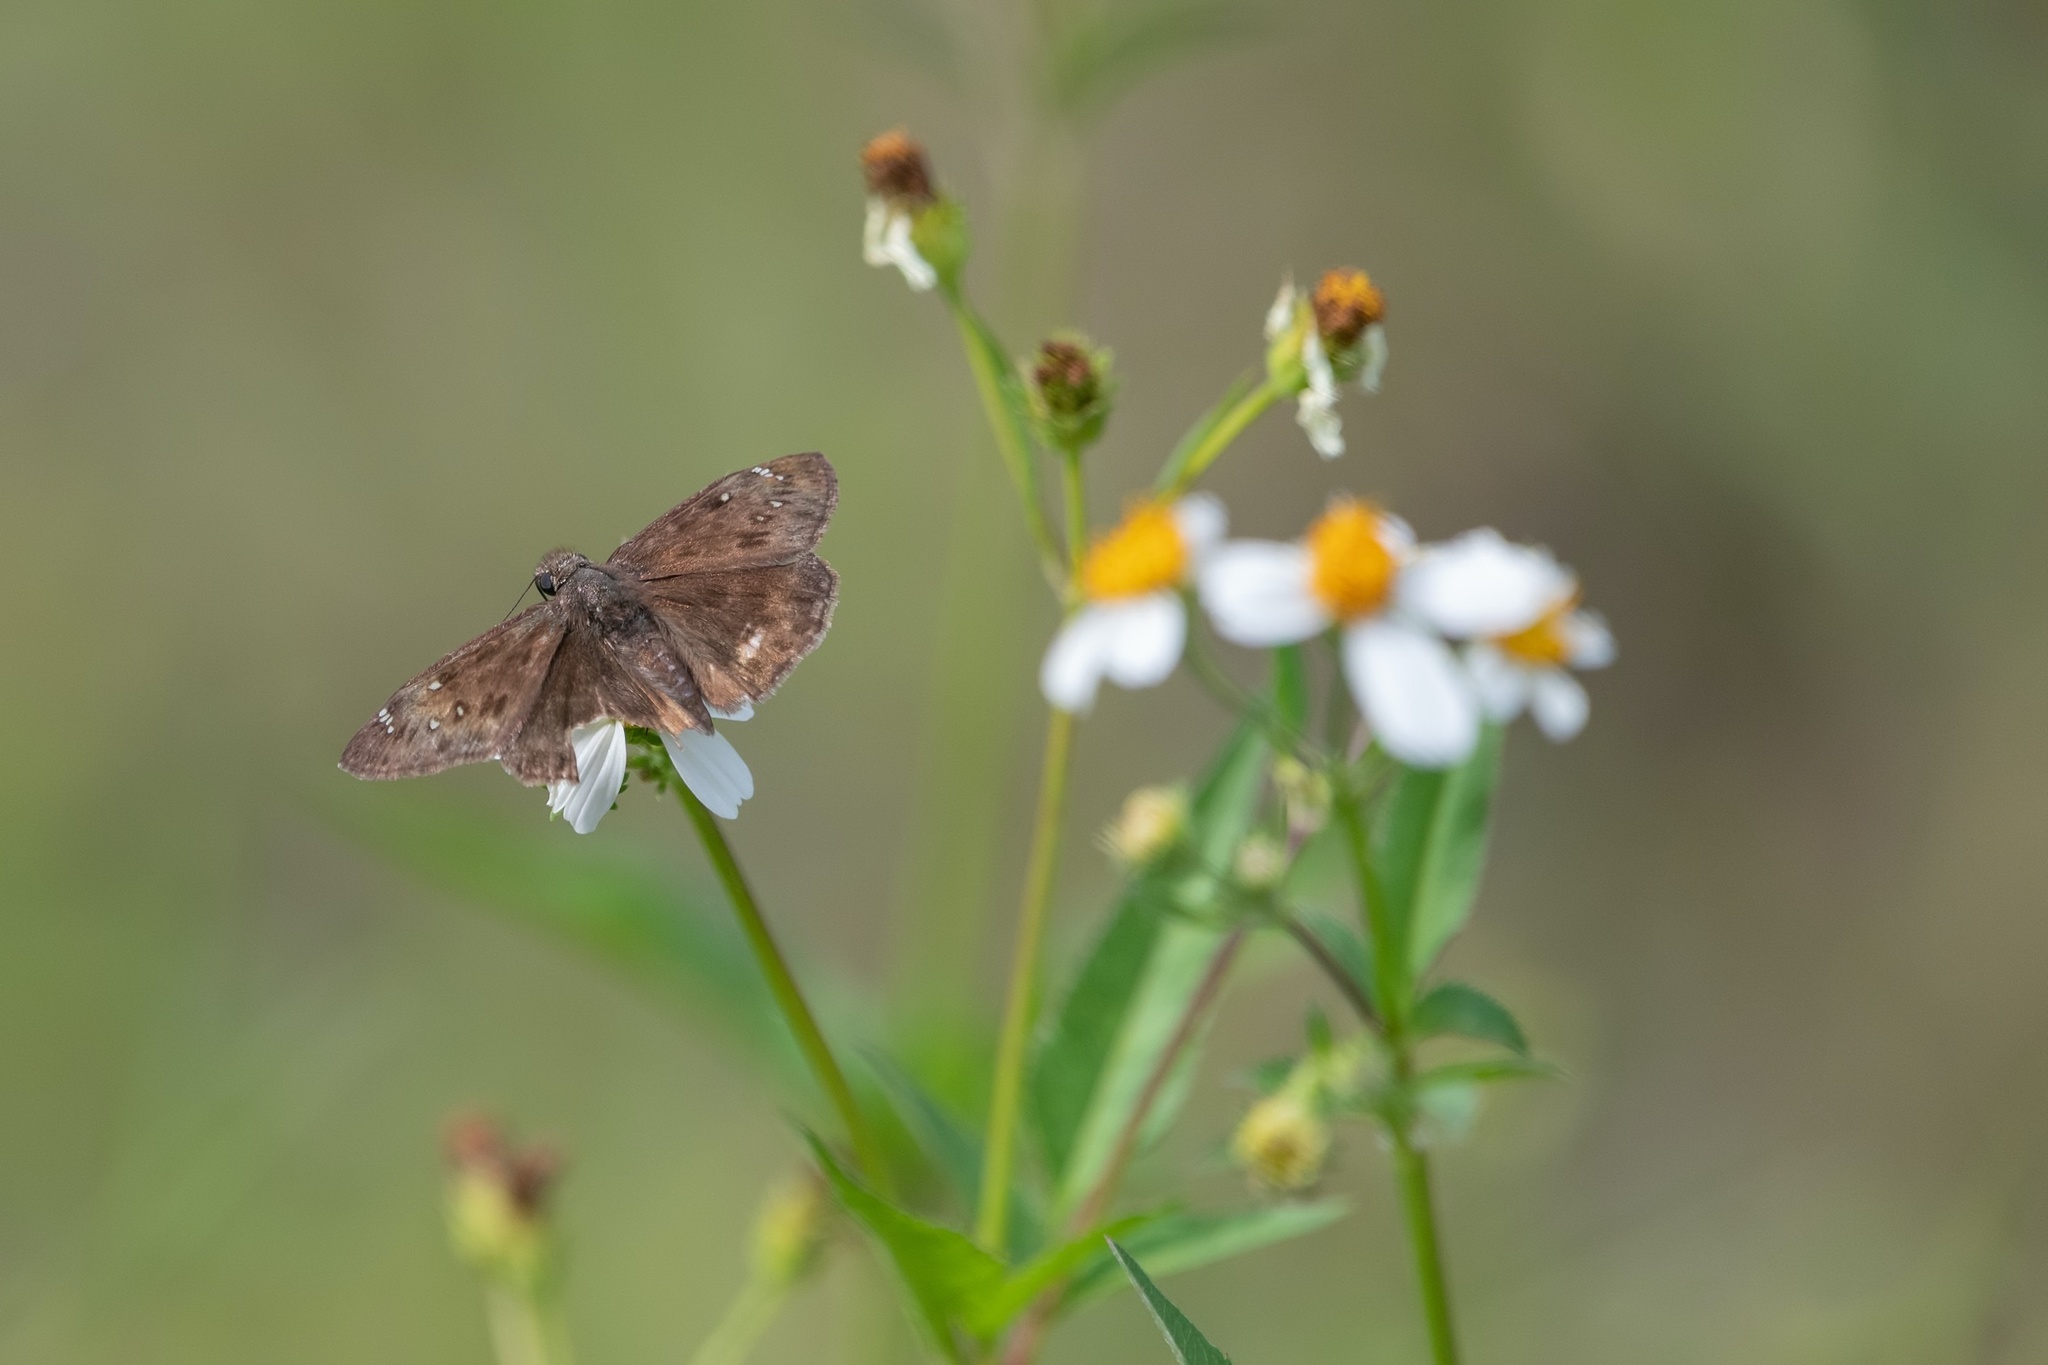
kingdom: Animalia
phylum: Arthropoda
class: Insecta
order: Lepidoptera
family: Hesperiidae
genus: Erynnis
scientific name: Erynnis horatius
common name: Horace's duskywing
